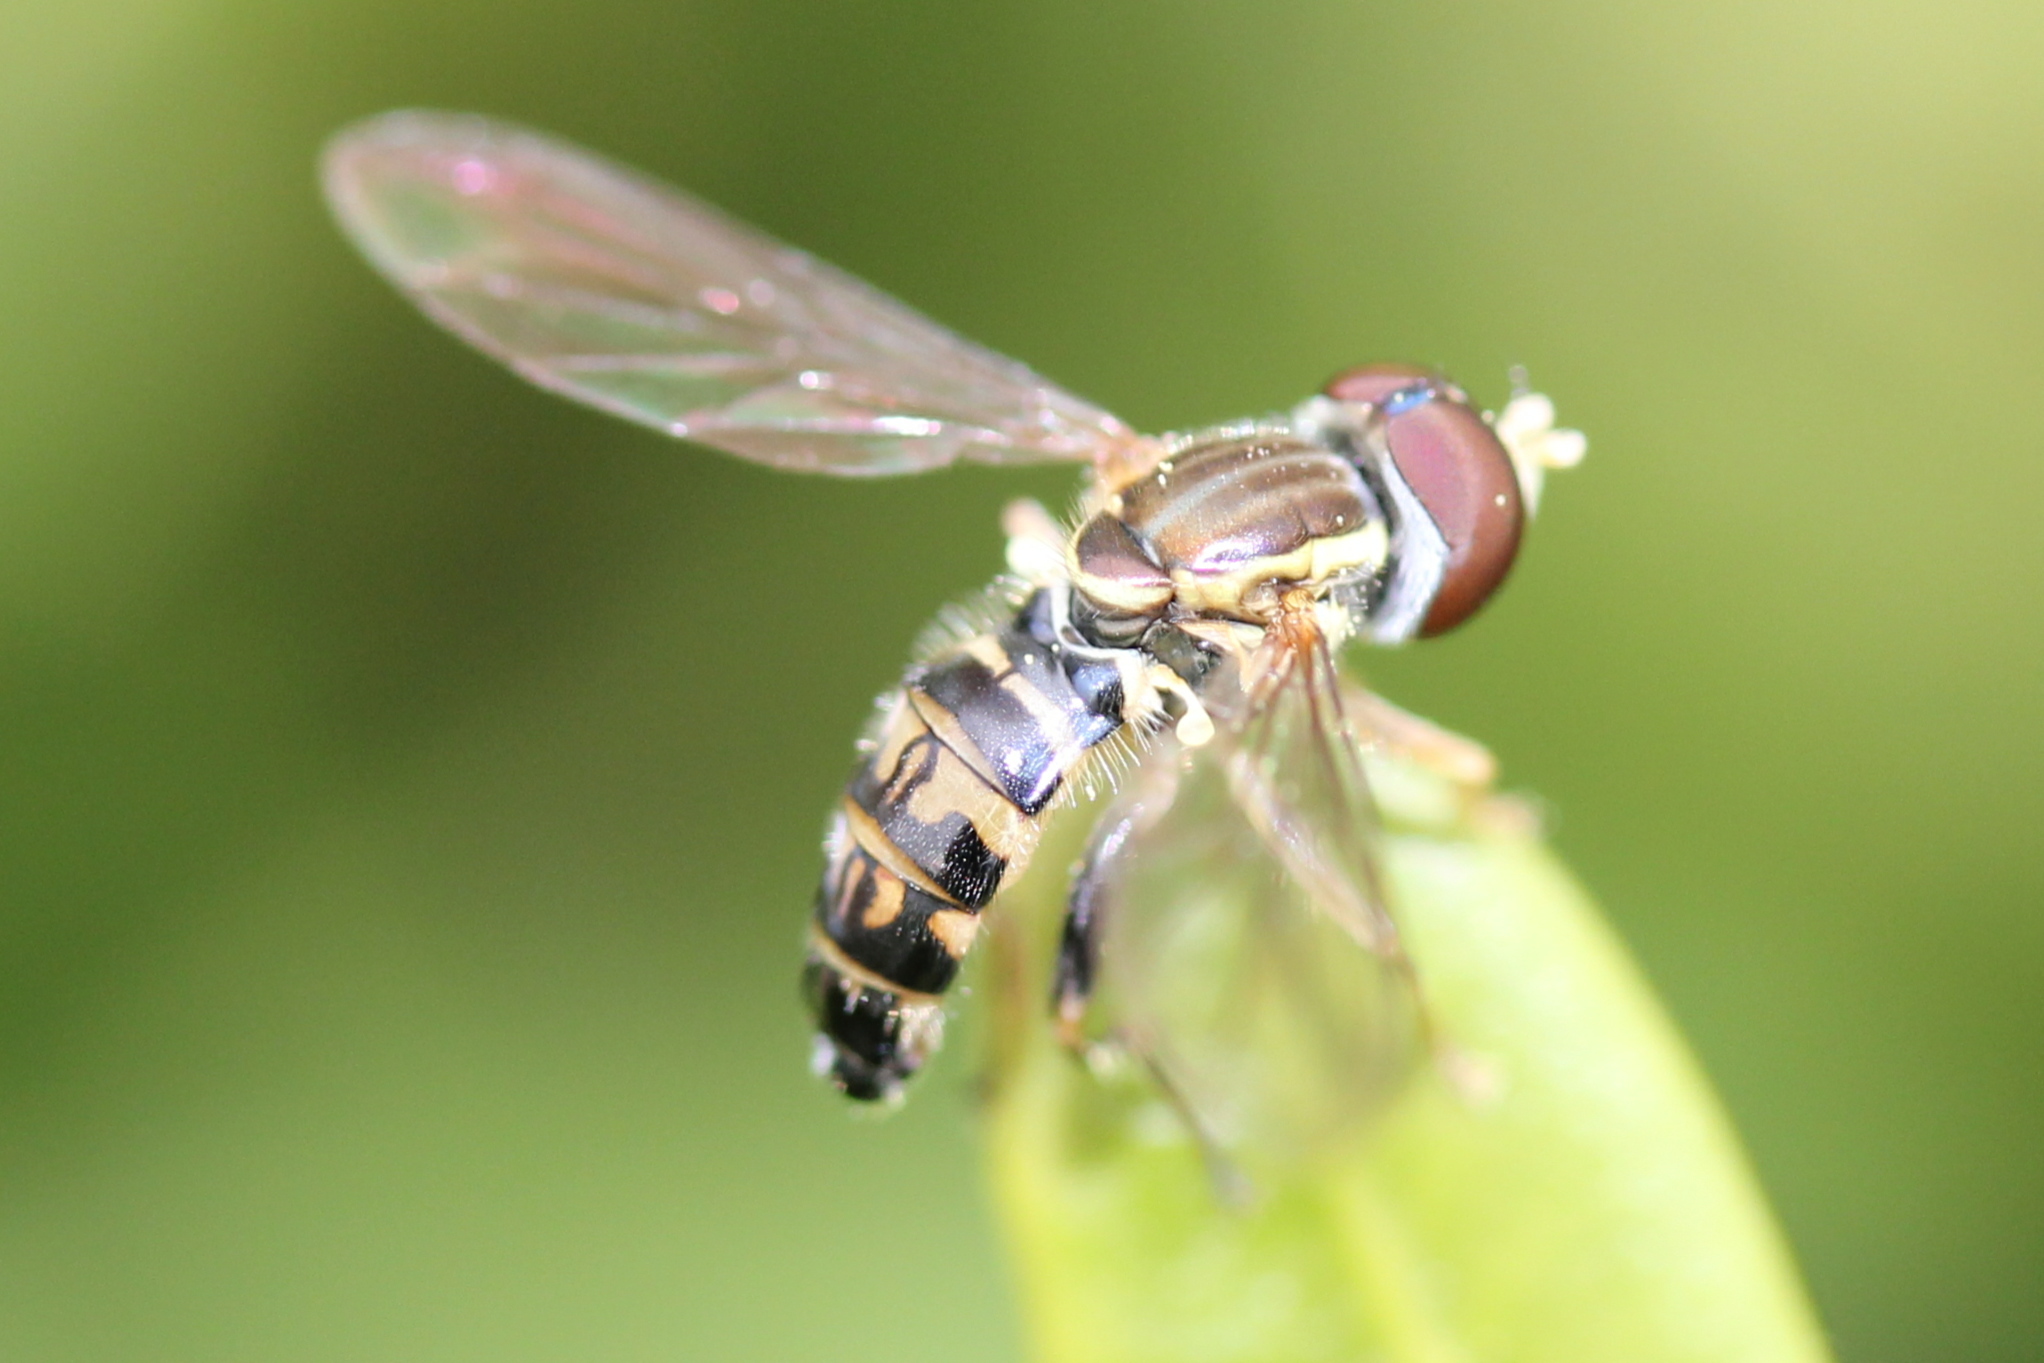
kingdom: Animalia
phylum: Arthropoda
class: Insecta
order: Diptera
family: Syrphidae
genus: Toxomerus
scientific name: Toxomerus geminatus
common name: Eastern calligrapher
